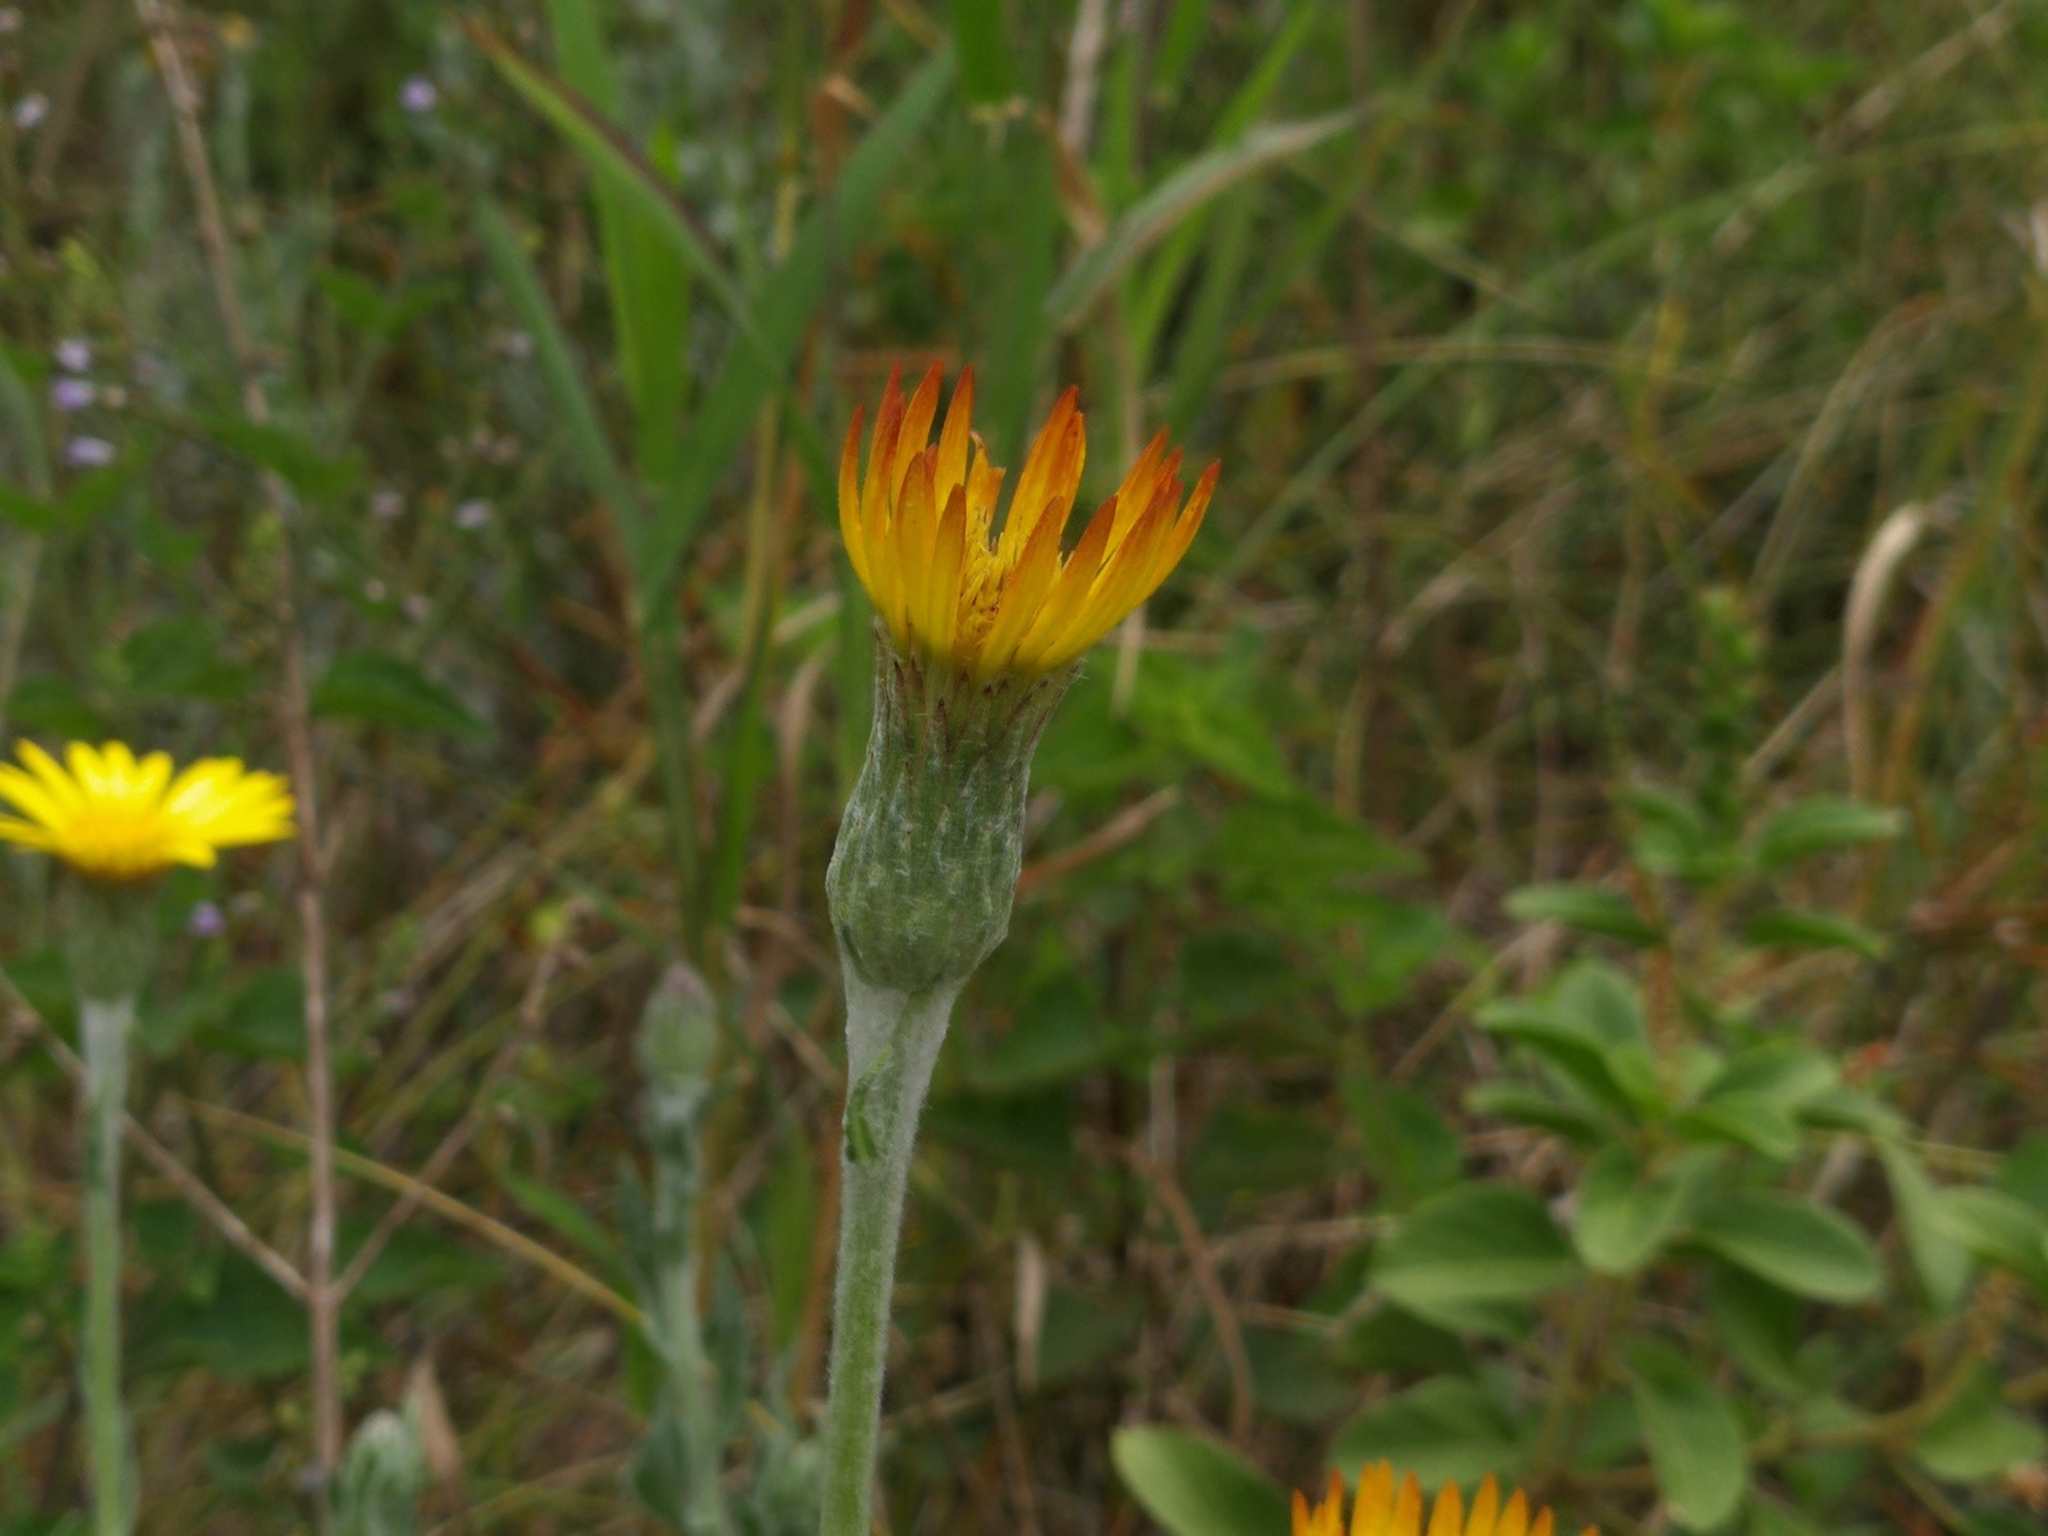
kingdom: Plantae
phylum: Tracheophyta
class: Magnoliopsida
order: Asterales
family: Asteraceae
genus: Noticastrum
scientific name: Noticastrum acuminatum
